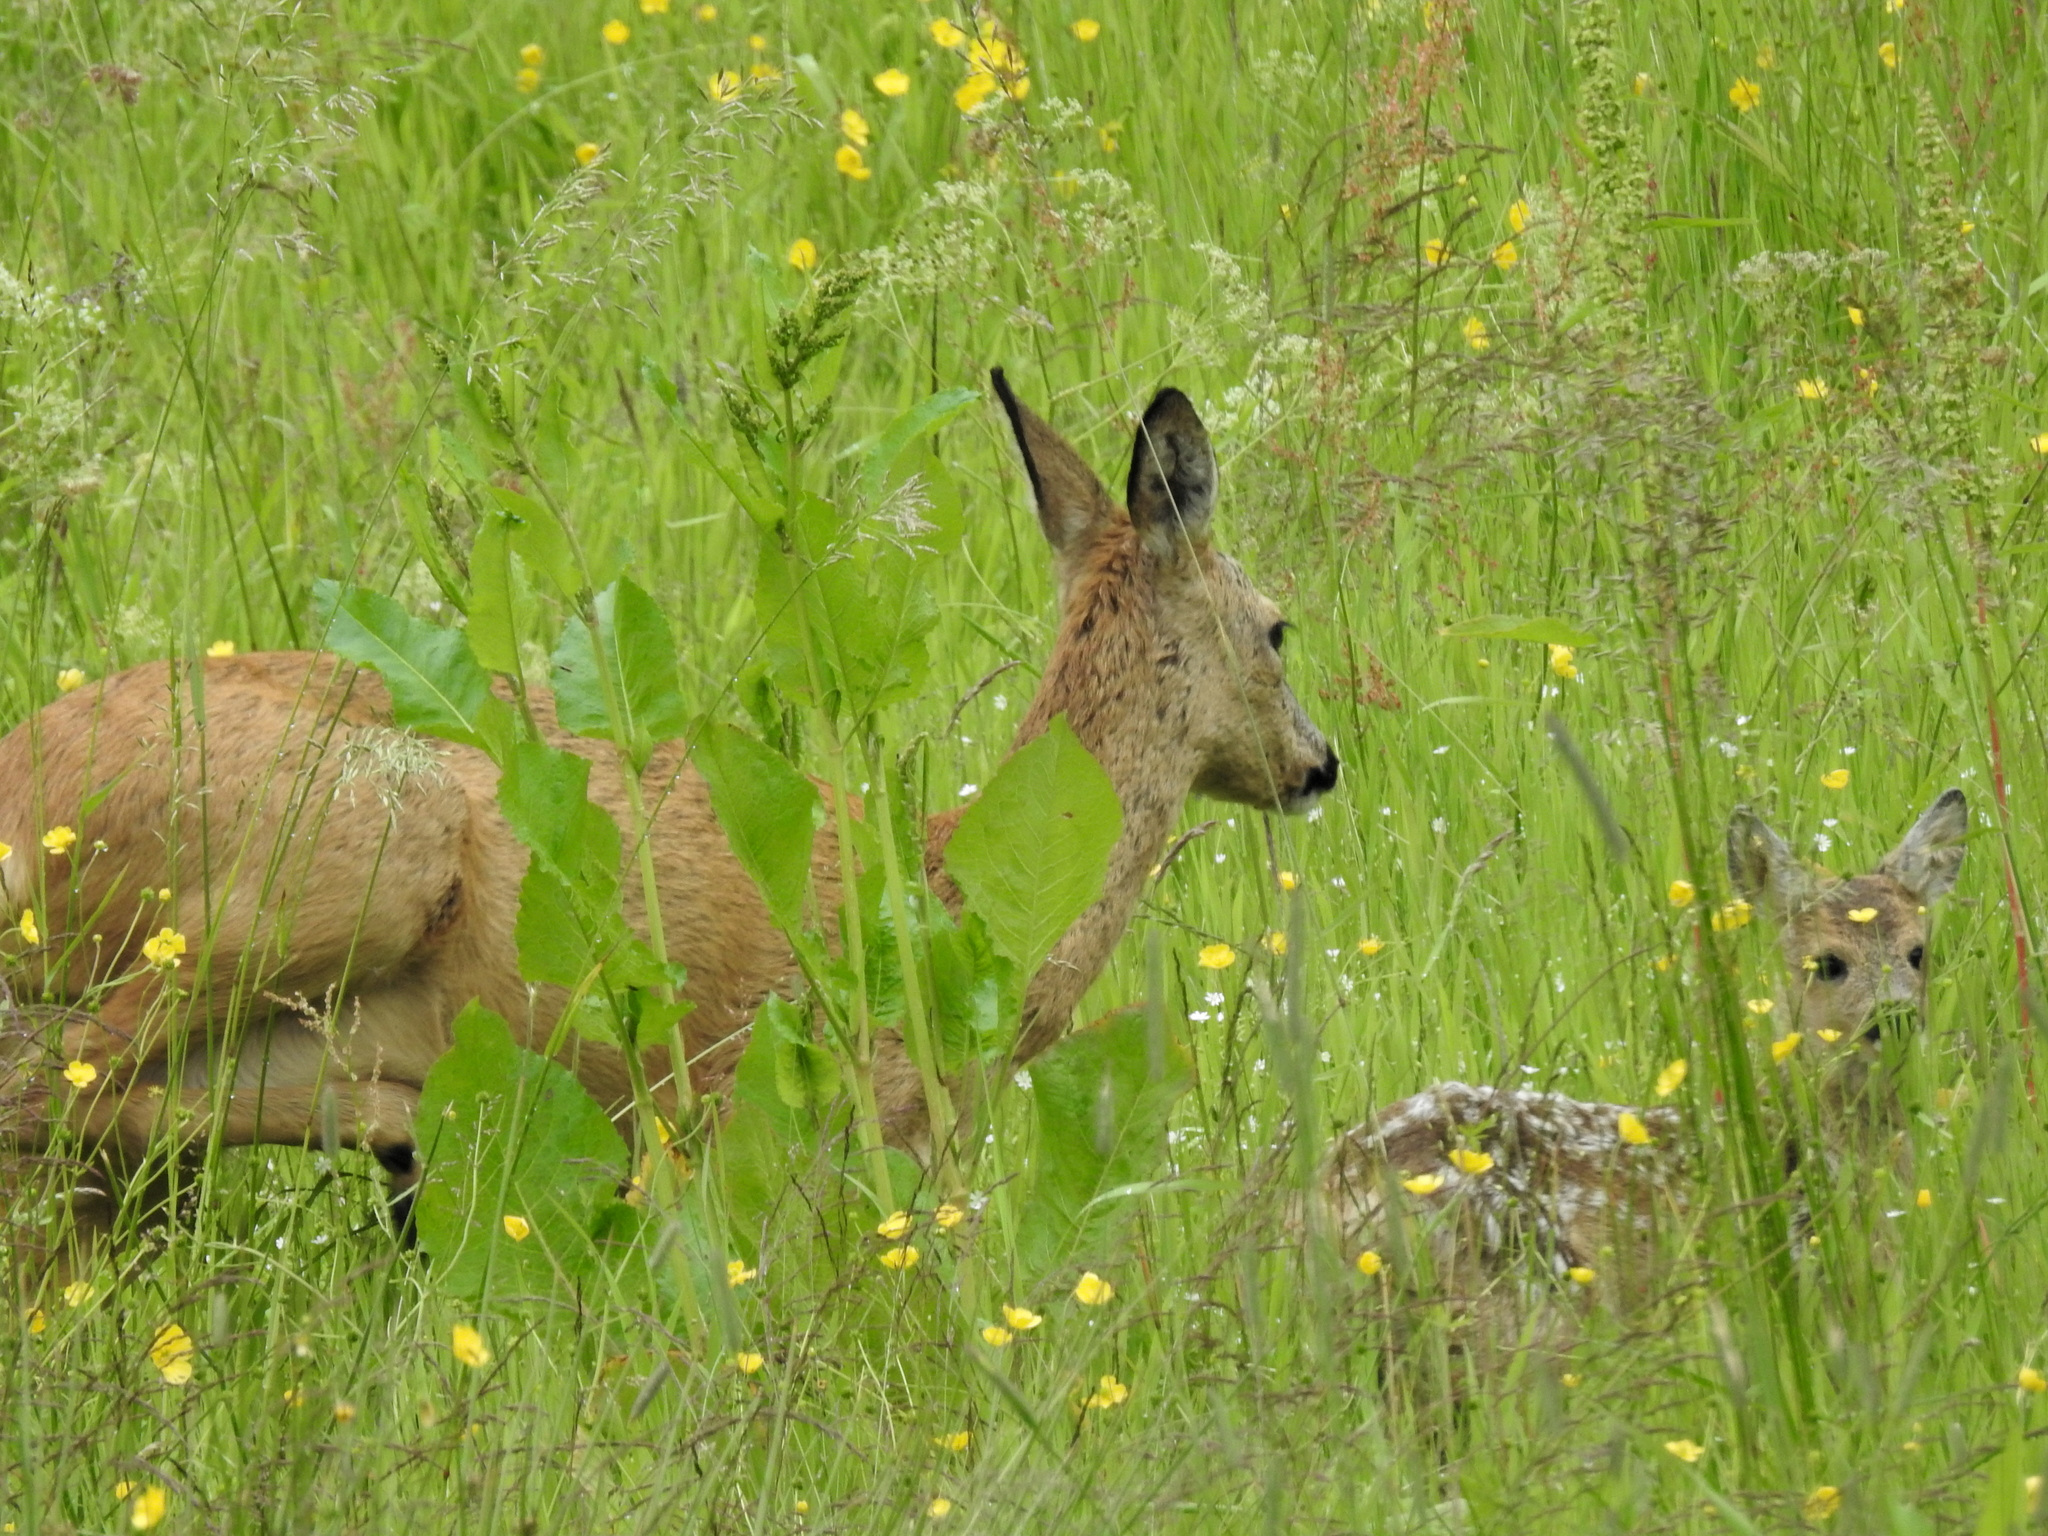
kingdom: Animalia
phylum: Chordata
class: Mammalia
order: Artiodactyla
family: Cervidae
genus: Capreolus
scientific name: Capreolus capreolus
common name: Western roe deer
